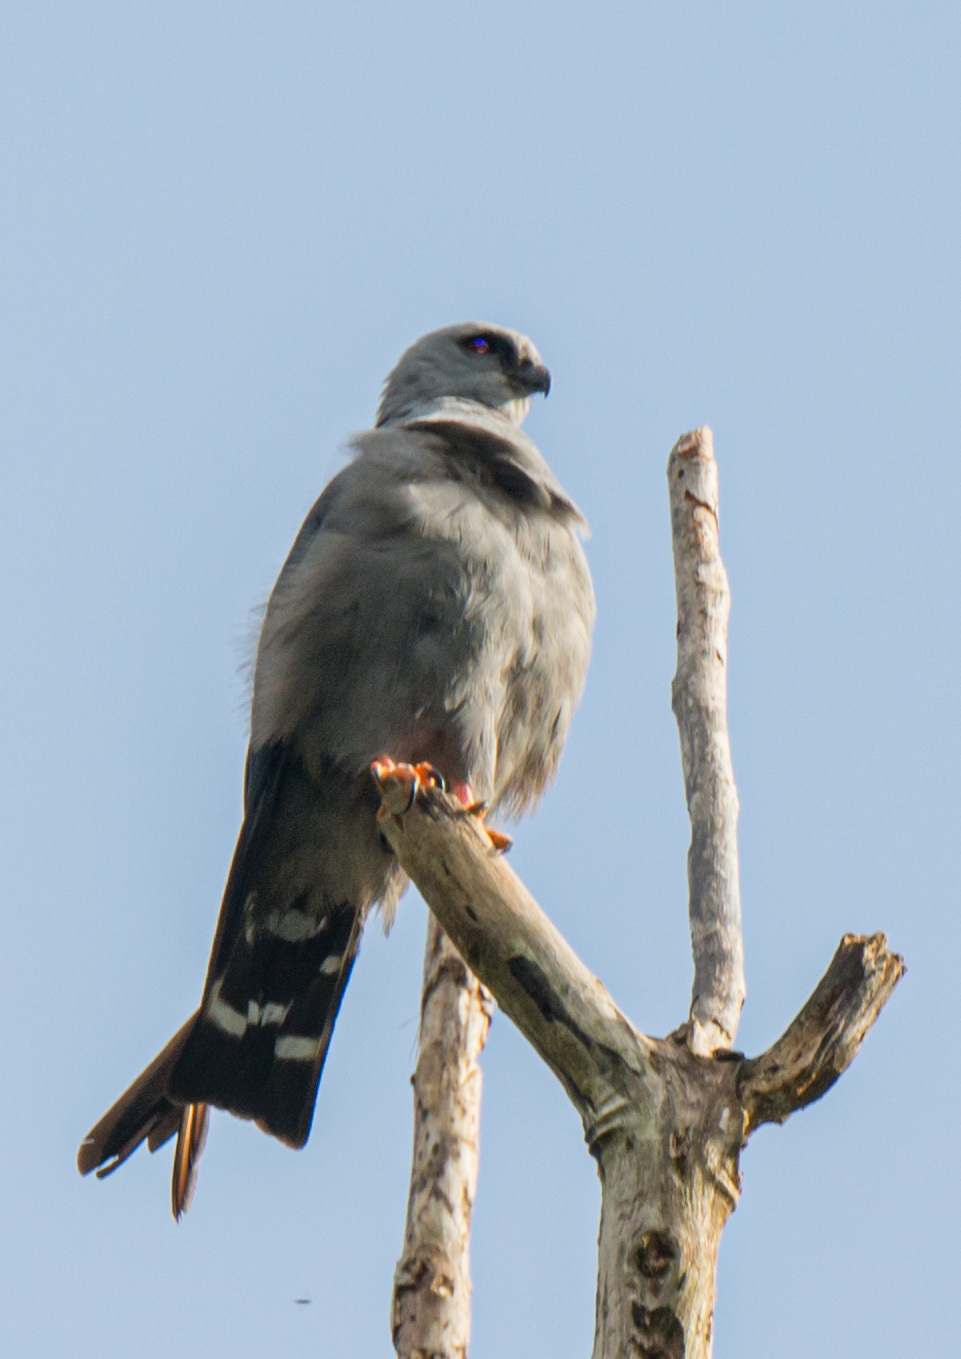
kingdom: Animalia
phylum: Chordata
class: Aves
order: Accipitriformes
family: Accipitridae
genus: Ictinia
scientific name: Ictinia plumbea
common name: Plumbeous kite
